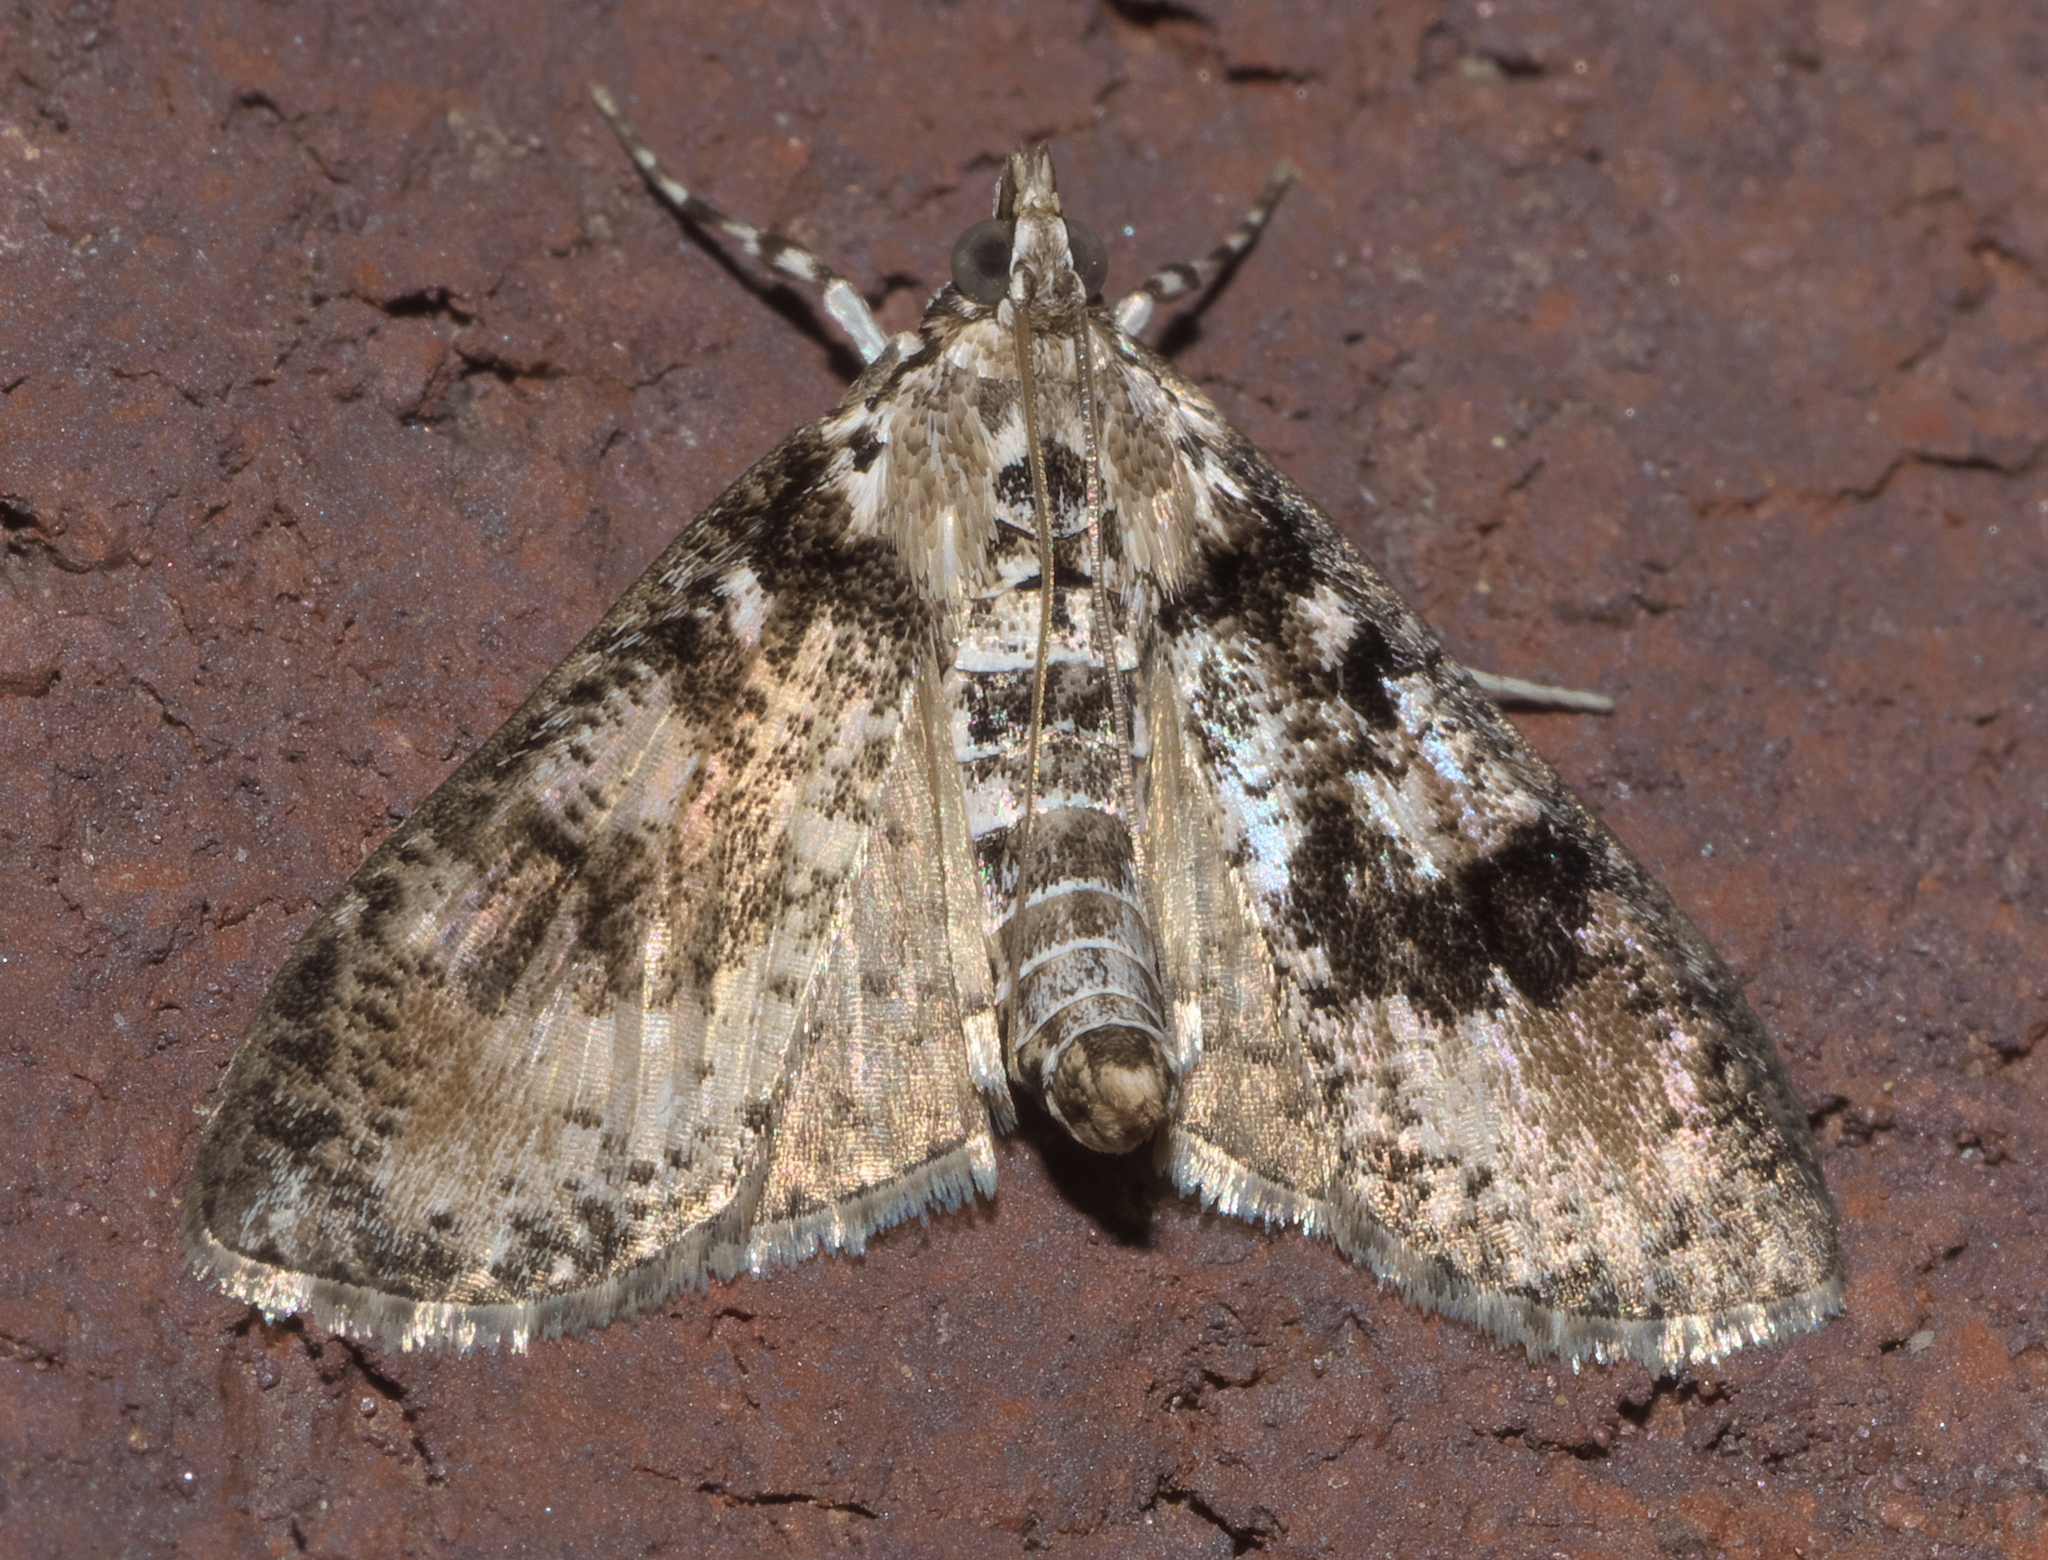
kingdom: Animalia
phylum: Arthropoda
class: Insecta
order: Lepidoptera
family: Crambidae
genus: Palpita
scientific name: Palpita magniferalis
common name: Splendid palpita moth
